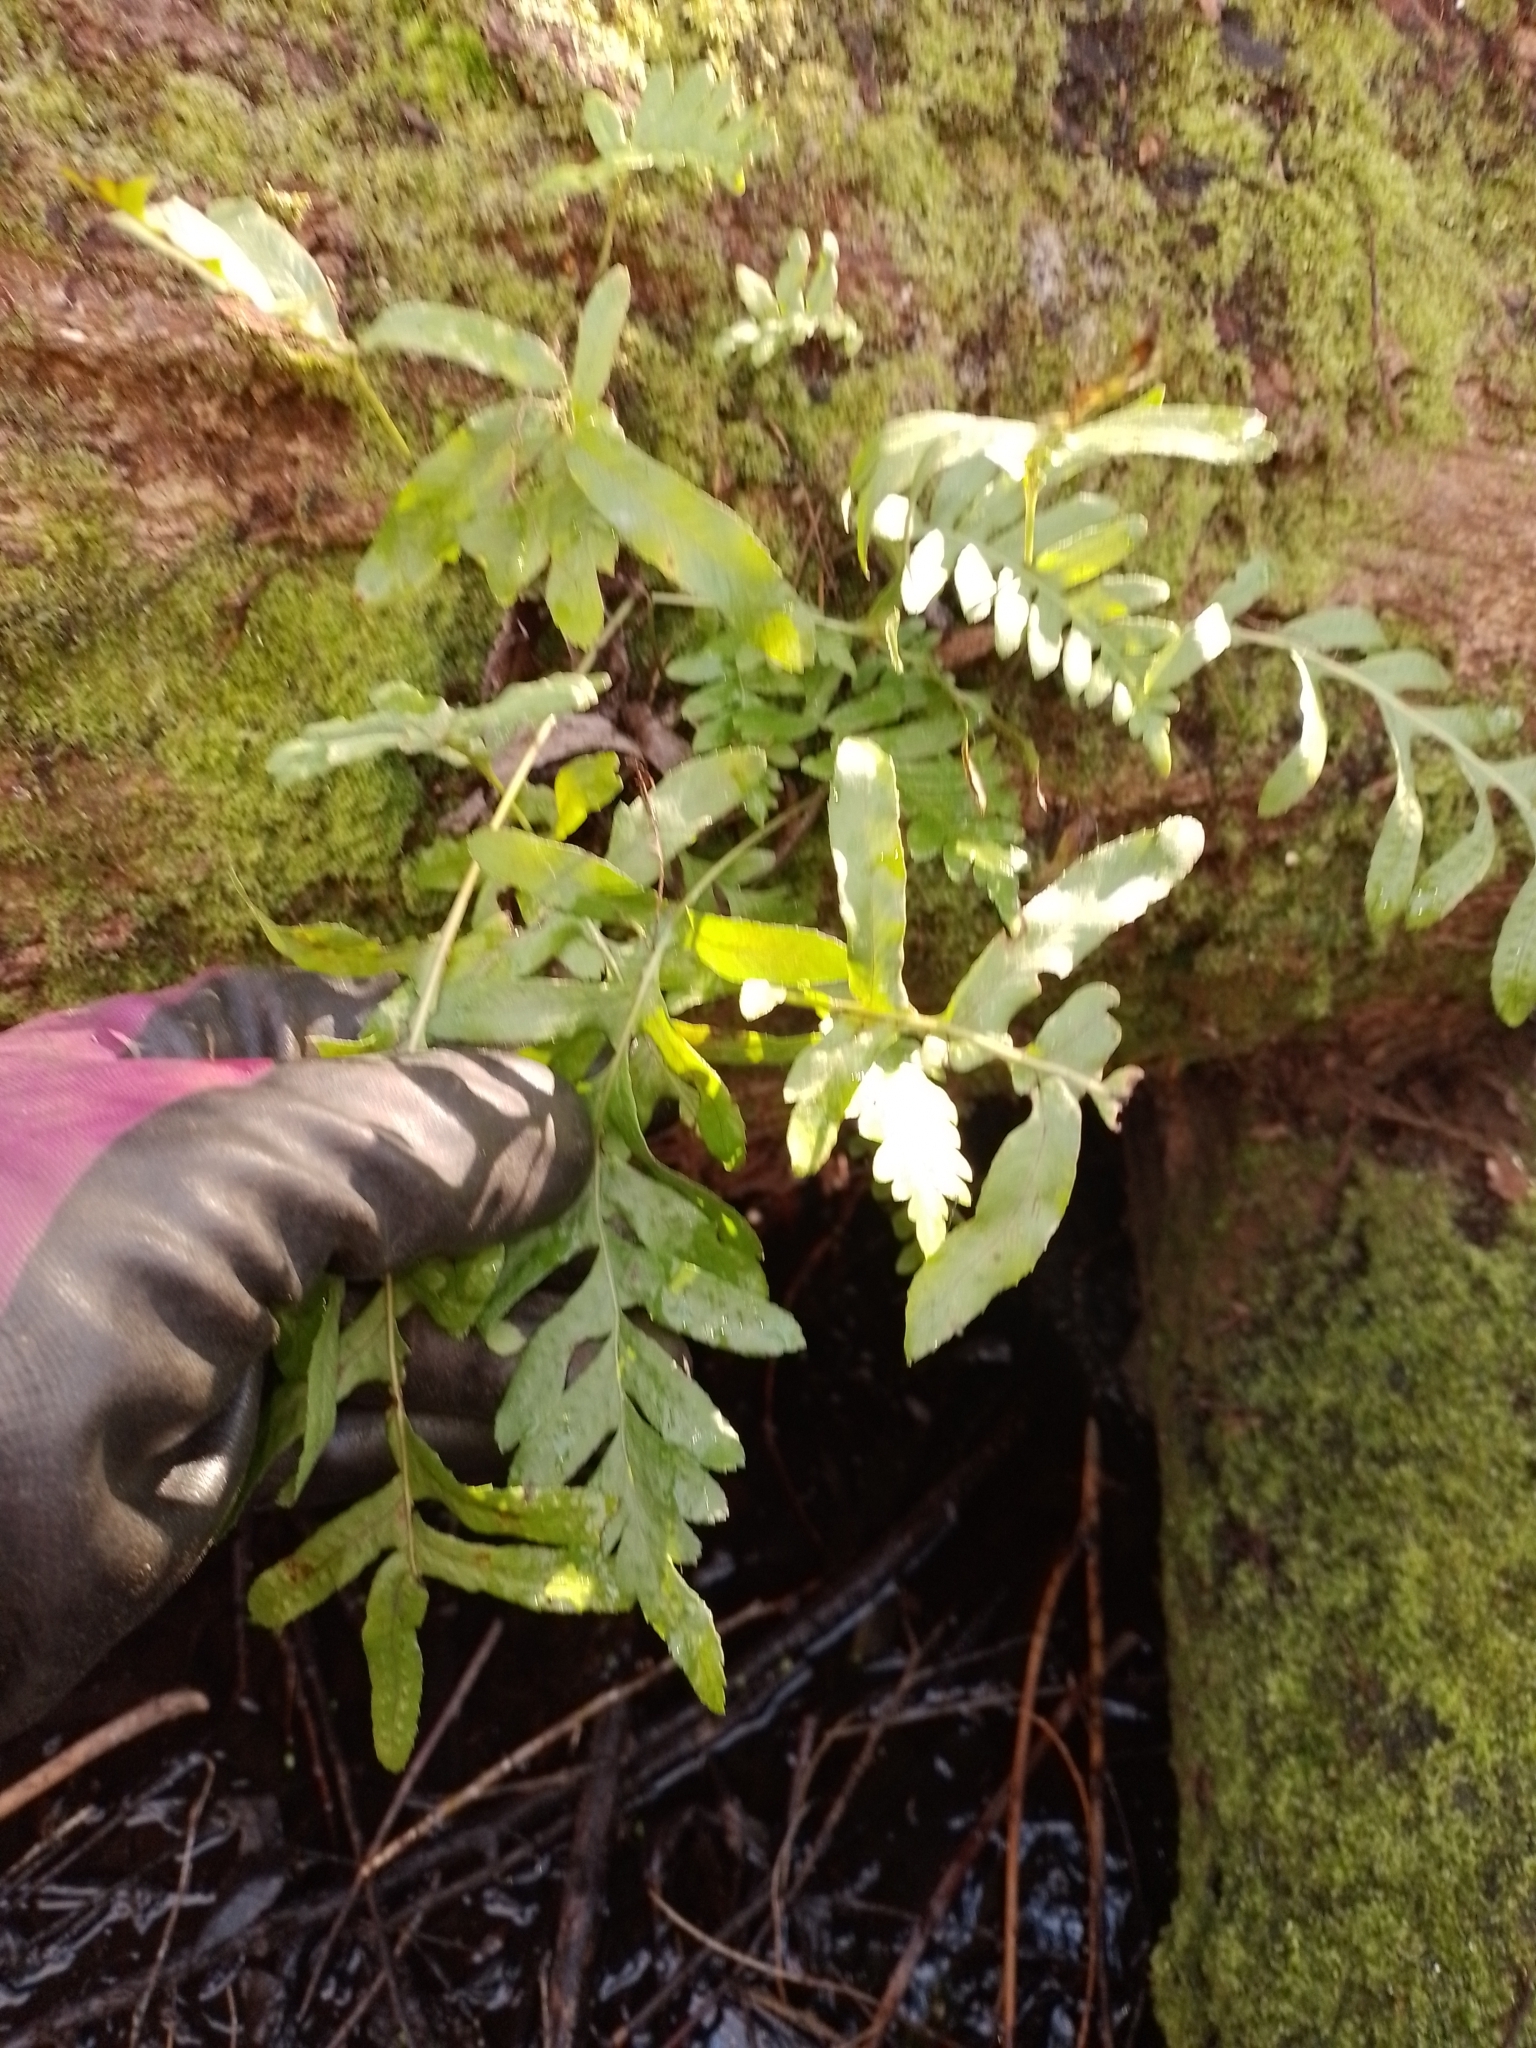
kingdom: Plantae
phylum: Tracheophyta
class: Polypodiopsida
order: Polypodiales
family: Polypodiaceae
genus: Polypodium
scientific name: Polypodium vulgare
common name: Common polypody
